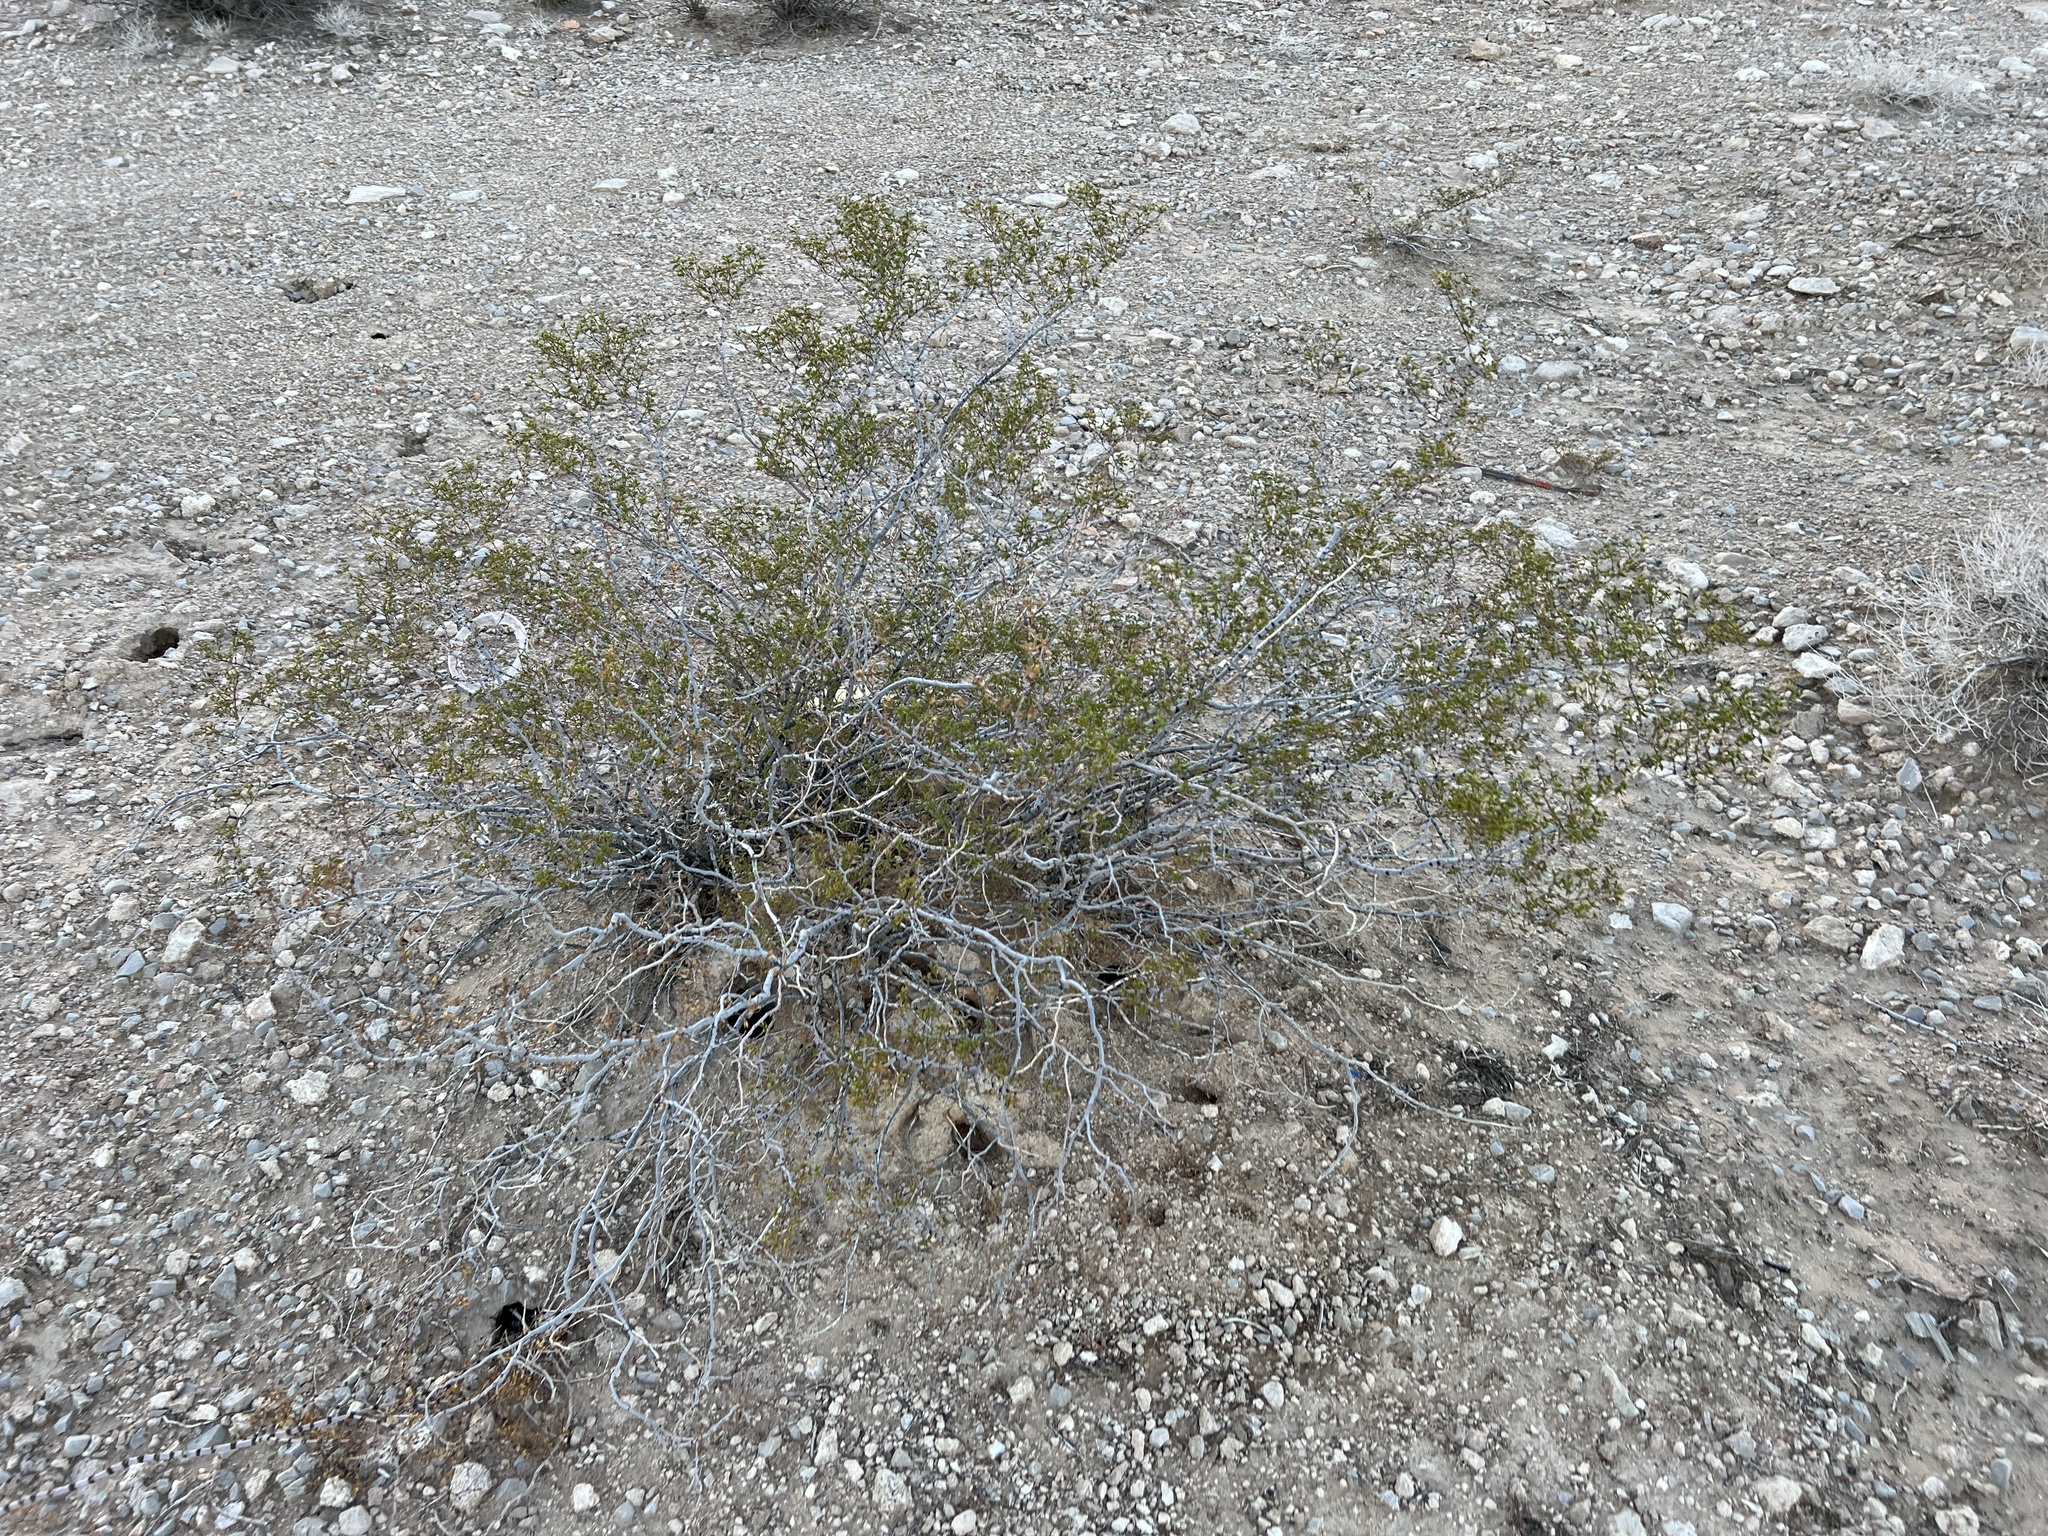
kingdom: Plantae
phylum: Tracheophyta
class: Magnoliopsida
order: Zygophyllales
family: Zygophyllaceae
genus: Larrea
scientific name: Larrea tridentata
